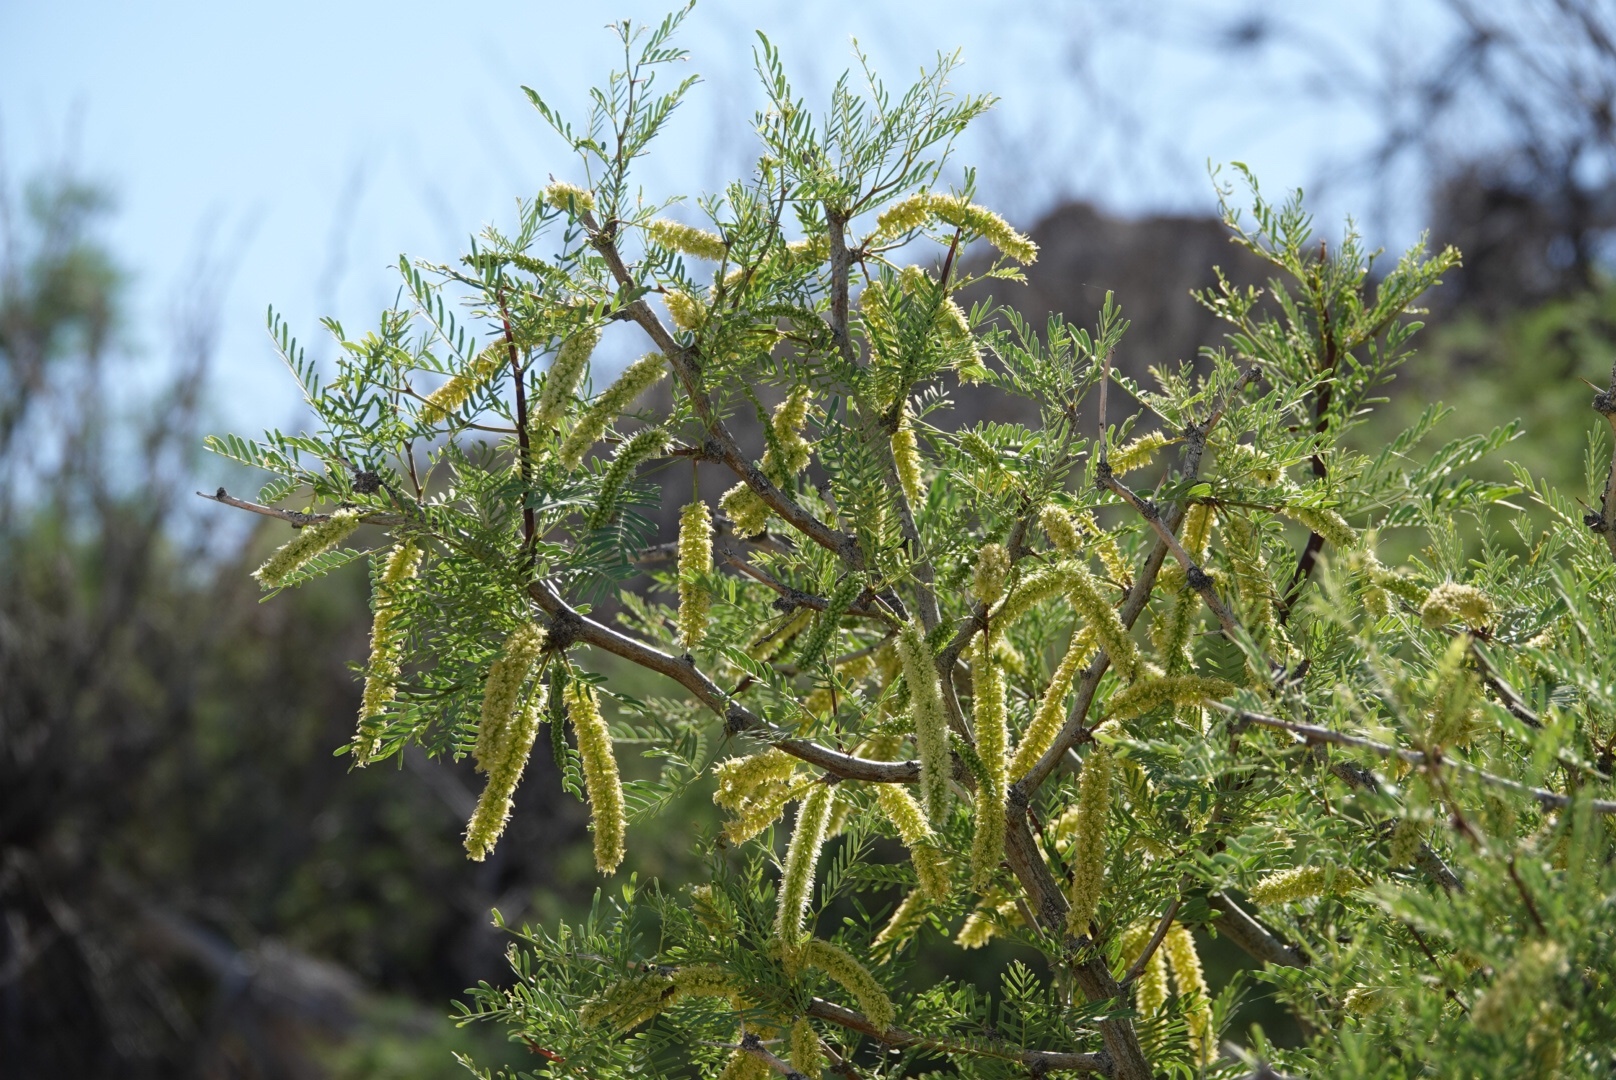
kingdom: Plantae
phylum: Tracheophyta
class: Magnoliopsida
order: Fabales
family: Fabaceae
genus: Prosopis
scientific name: Prosopis glandulosa
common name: Honey mesquite
